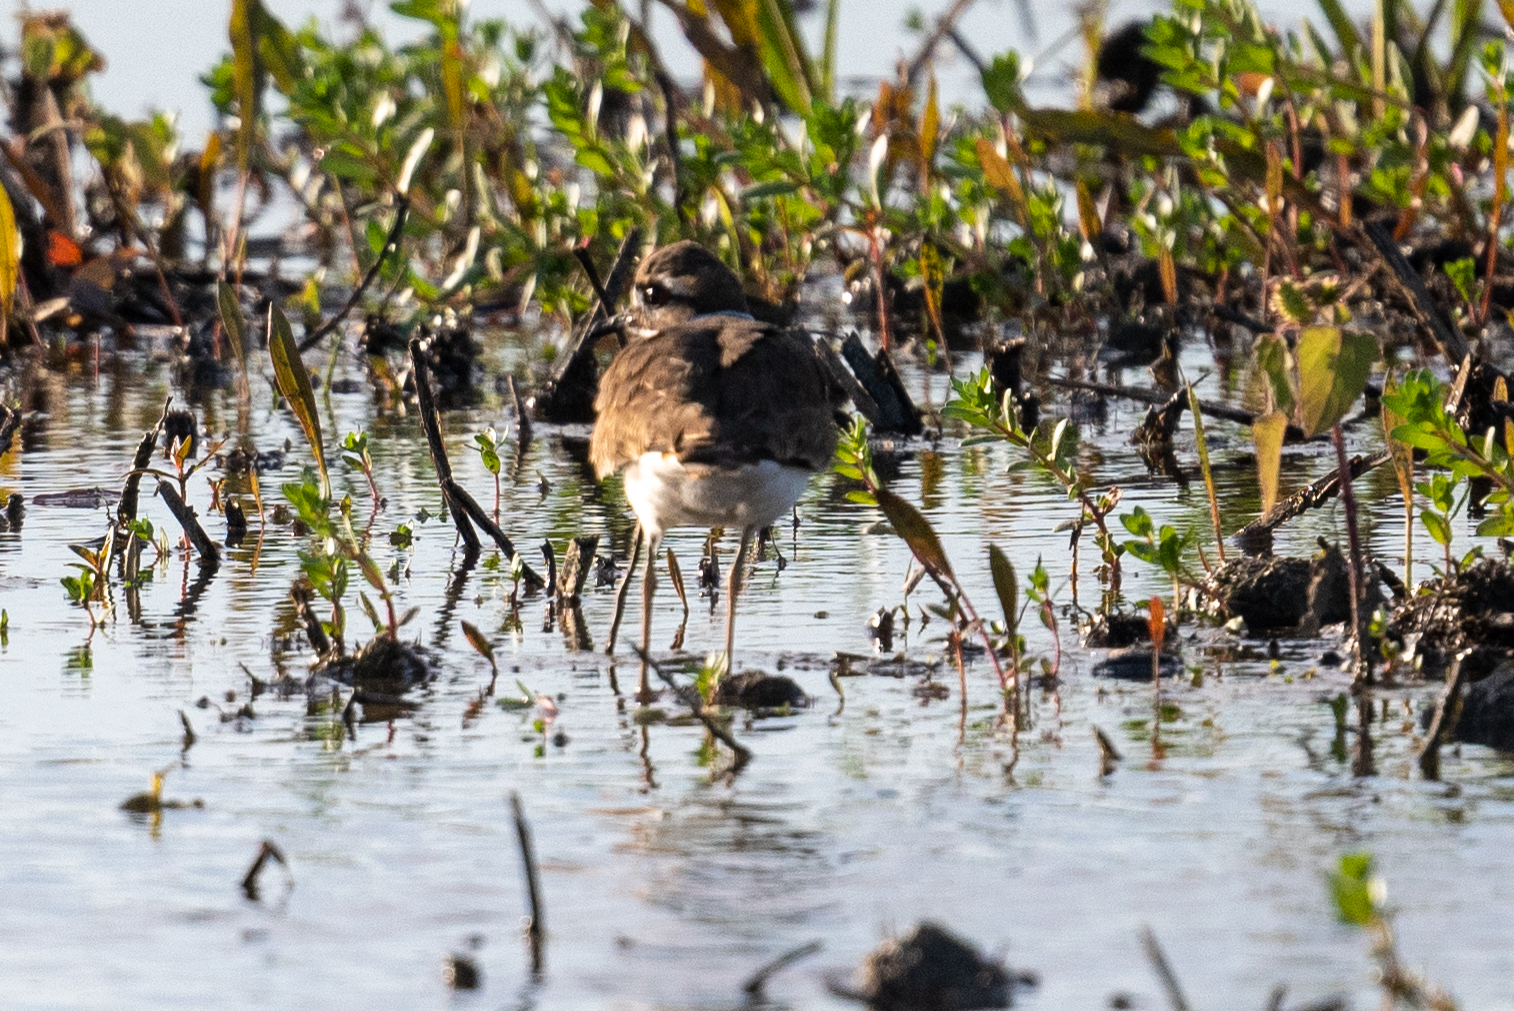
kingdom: Animalia
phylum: Chordata
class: Aves
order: Charadriiformes
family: Charadriidae
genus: Charadrius
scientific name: Charadrius vociferus
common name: Killdeer
